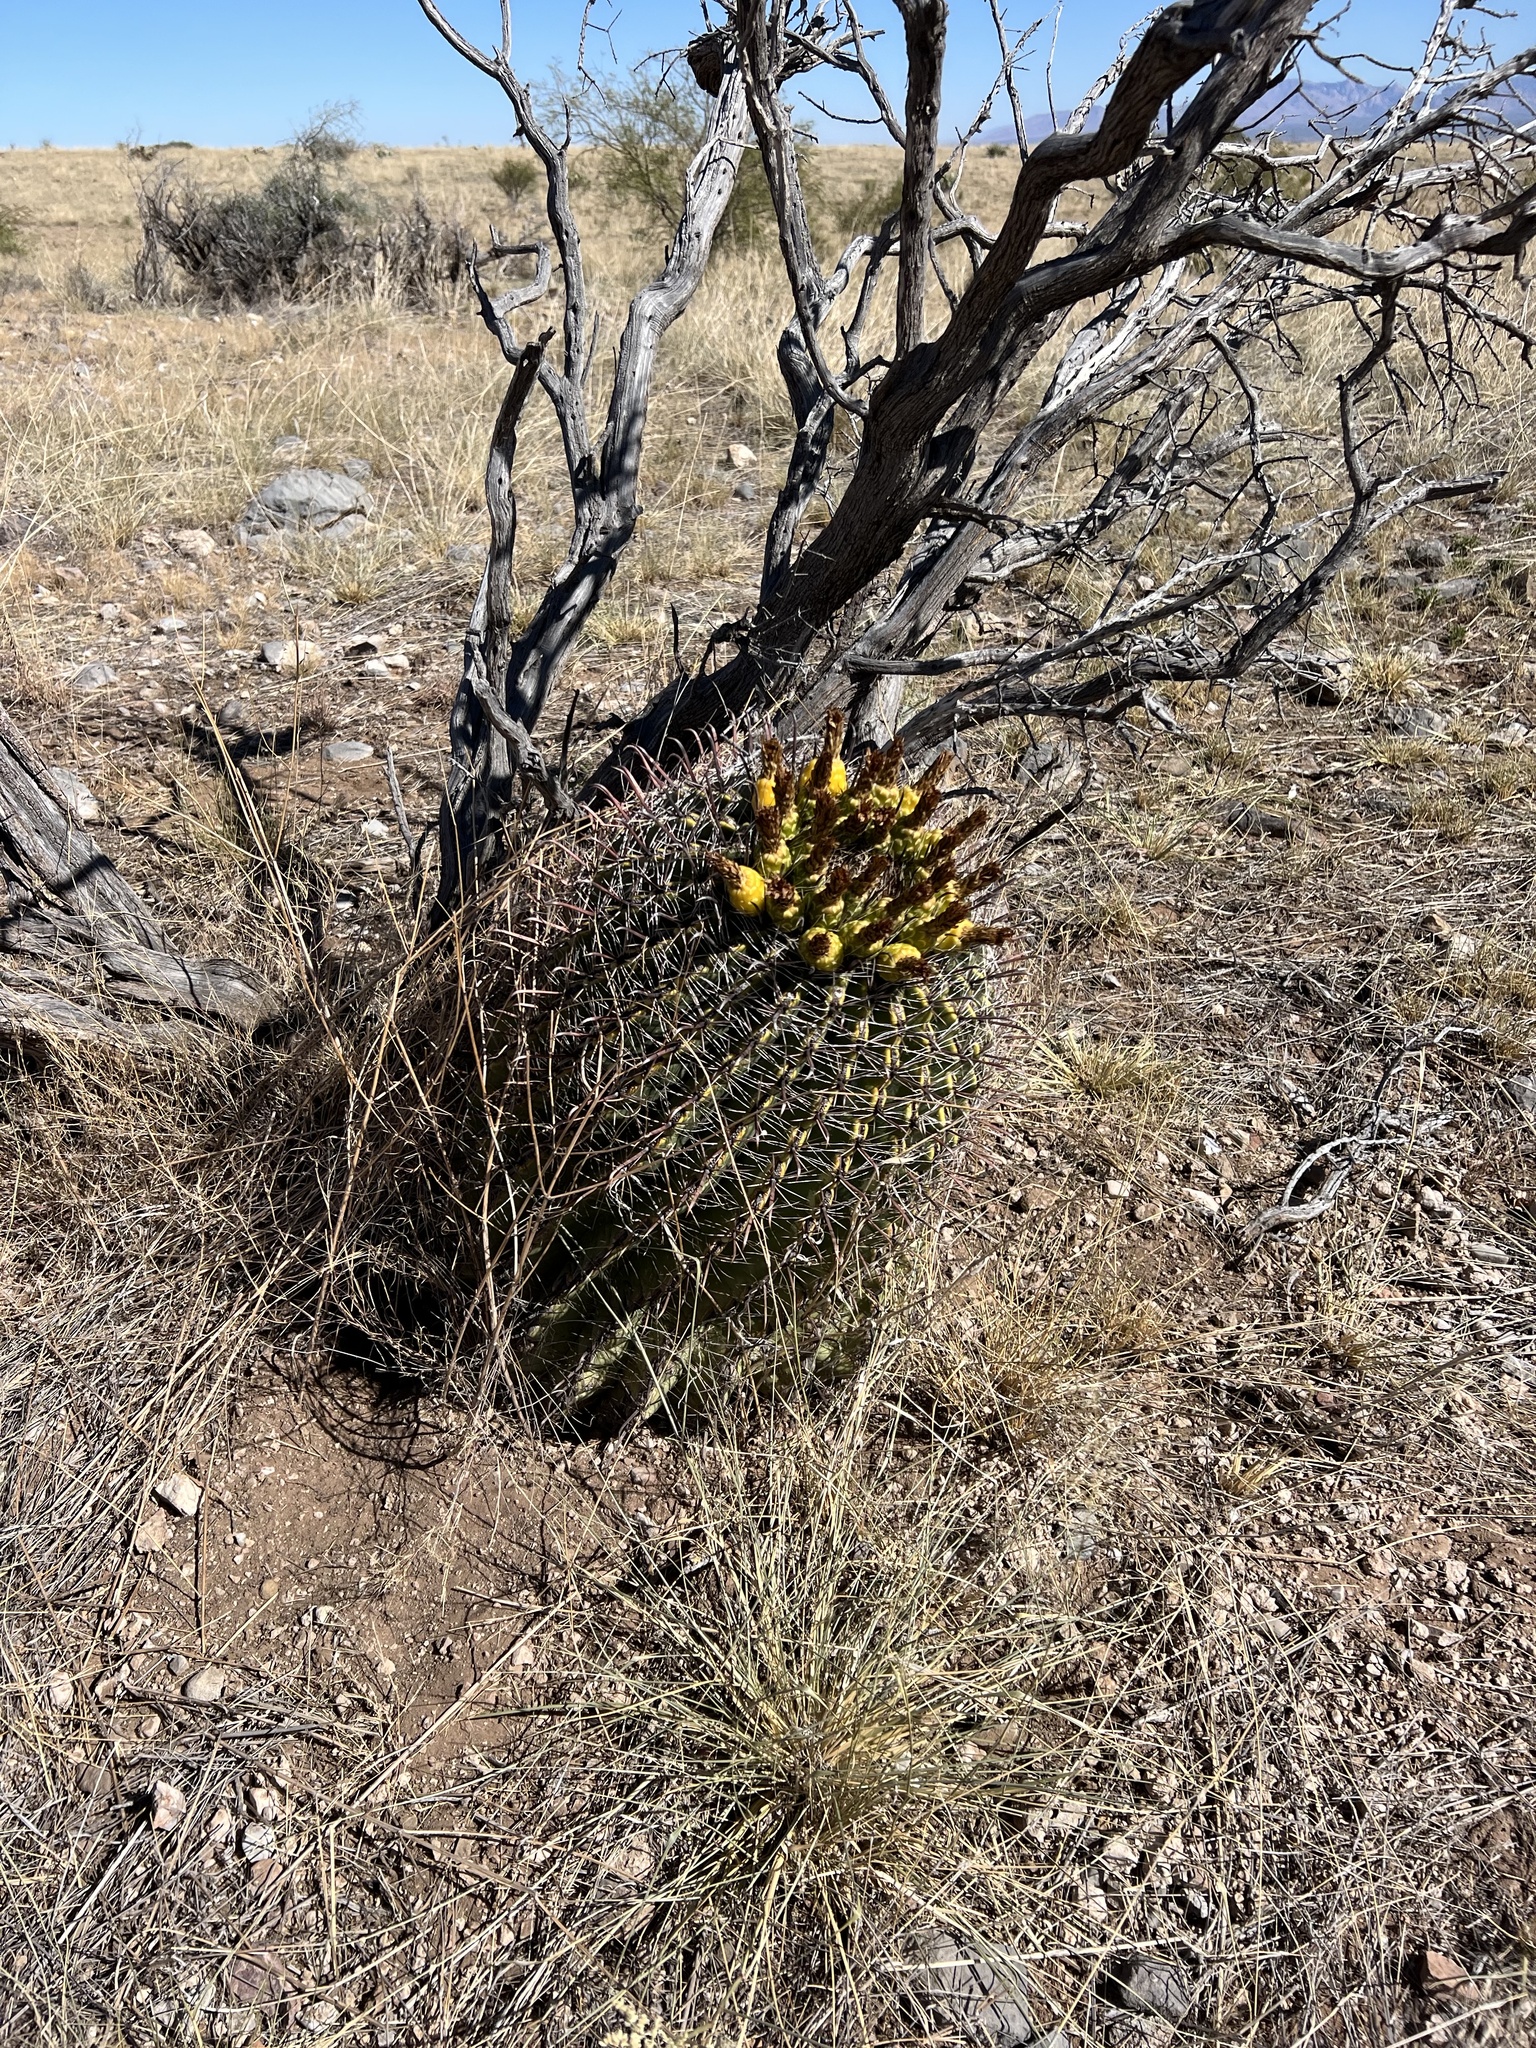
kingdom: Plantae
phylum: Tracheophyta
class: Magnoliopsida
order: Caryophyllales
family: Cactaceae
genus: Ferocactus
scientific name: Ferocactus wislizeni
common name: Candy barrel cactus
